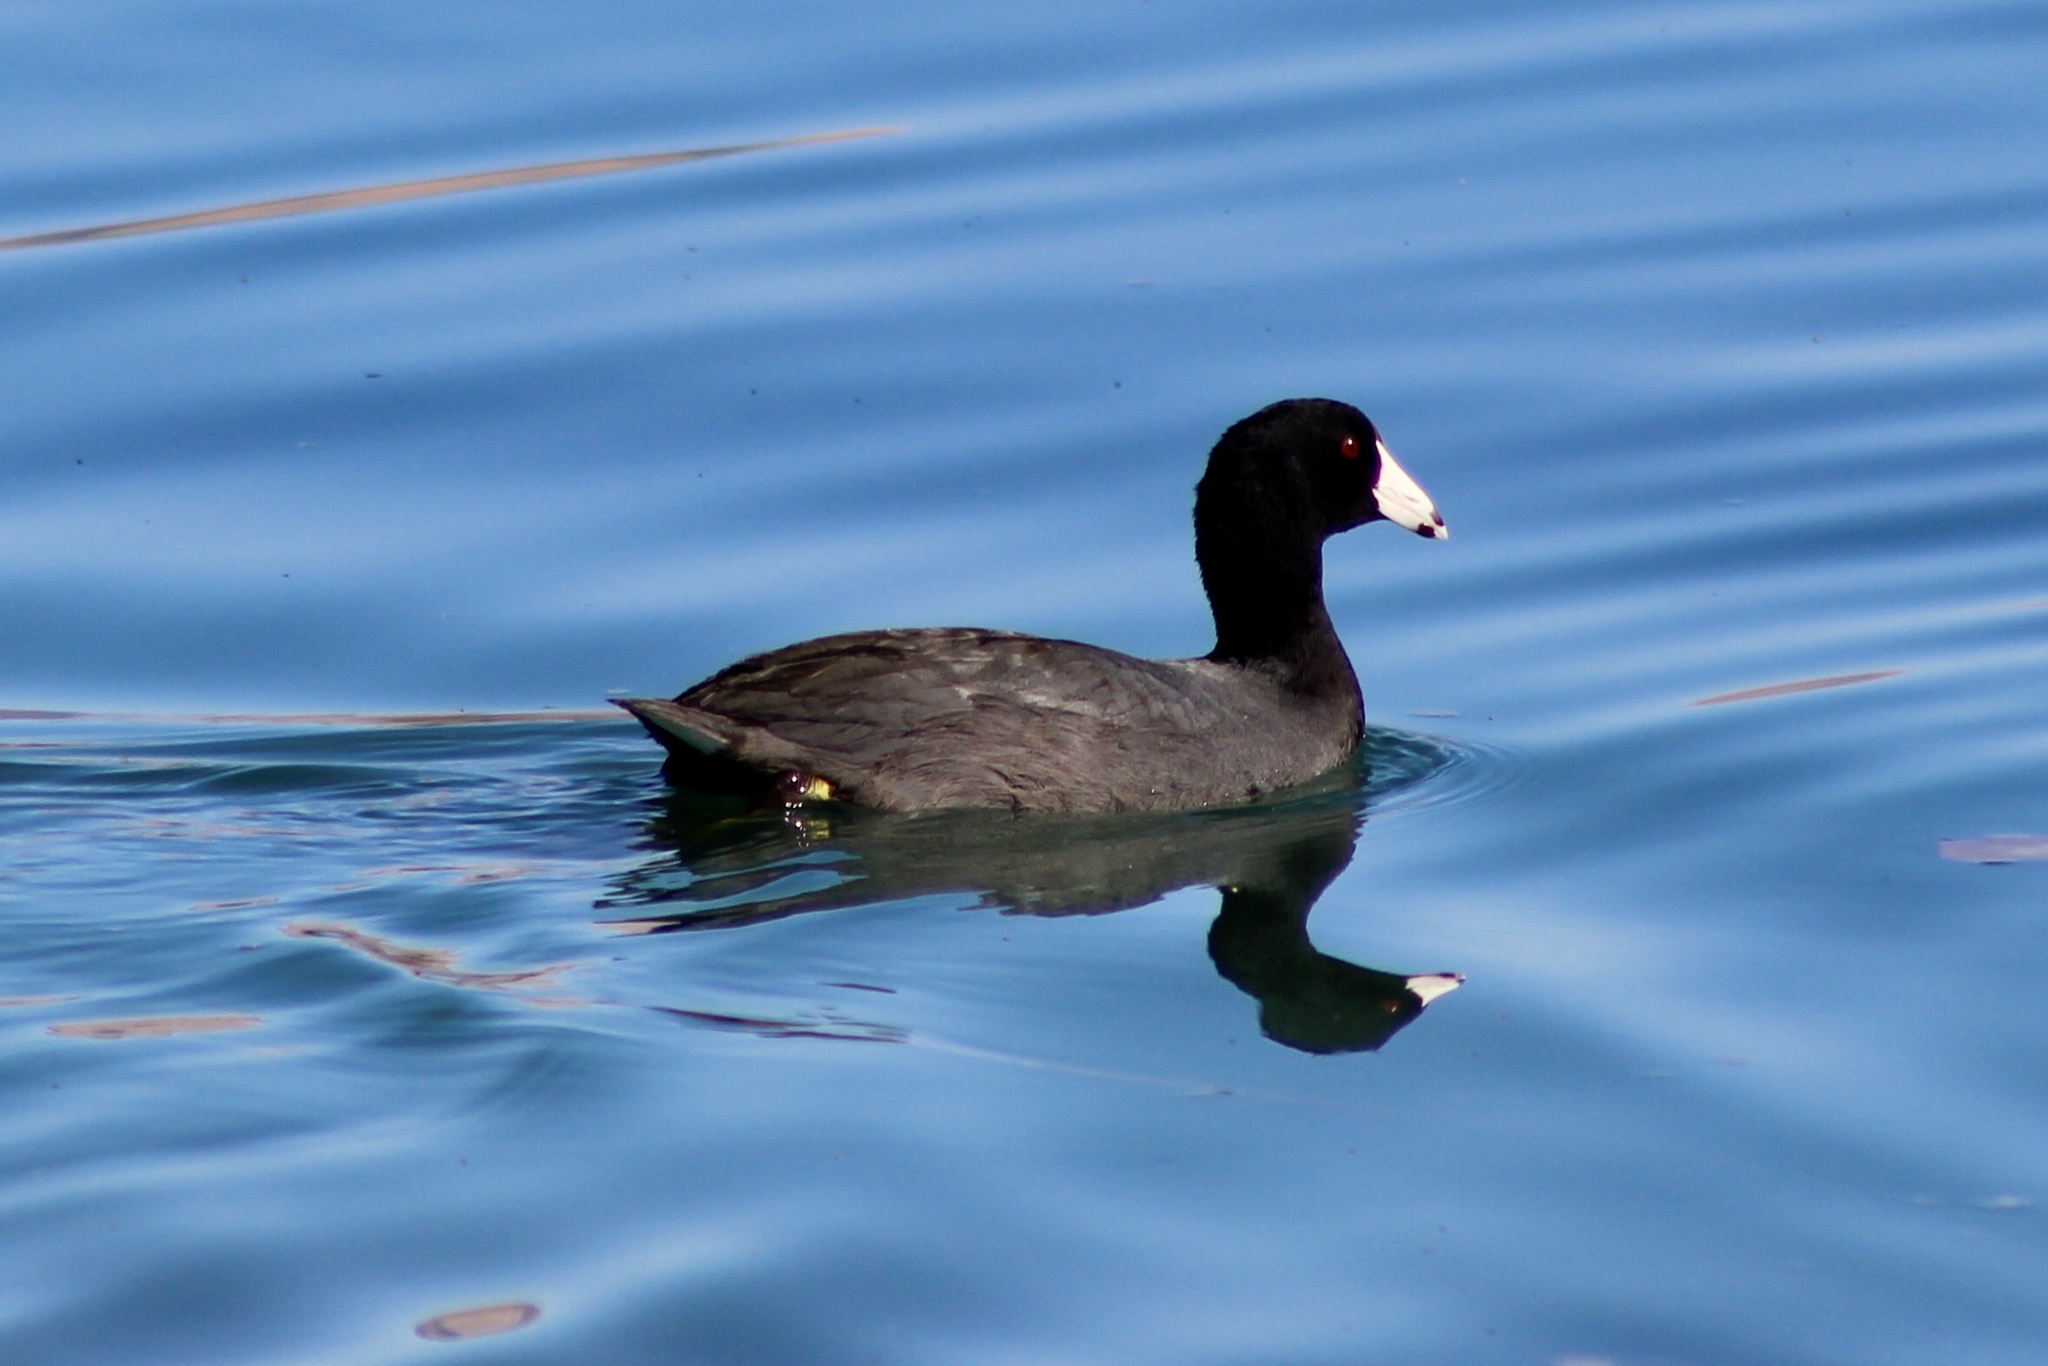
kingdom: Animalia
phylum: Chordata
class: Aves
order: Gruiformes
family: Rallidae
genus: Fulica
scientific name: Fulica americana
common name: American coot
